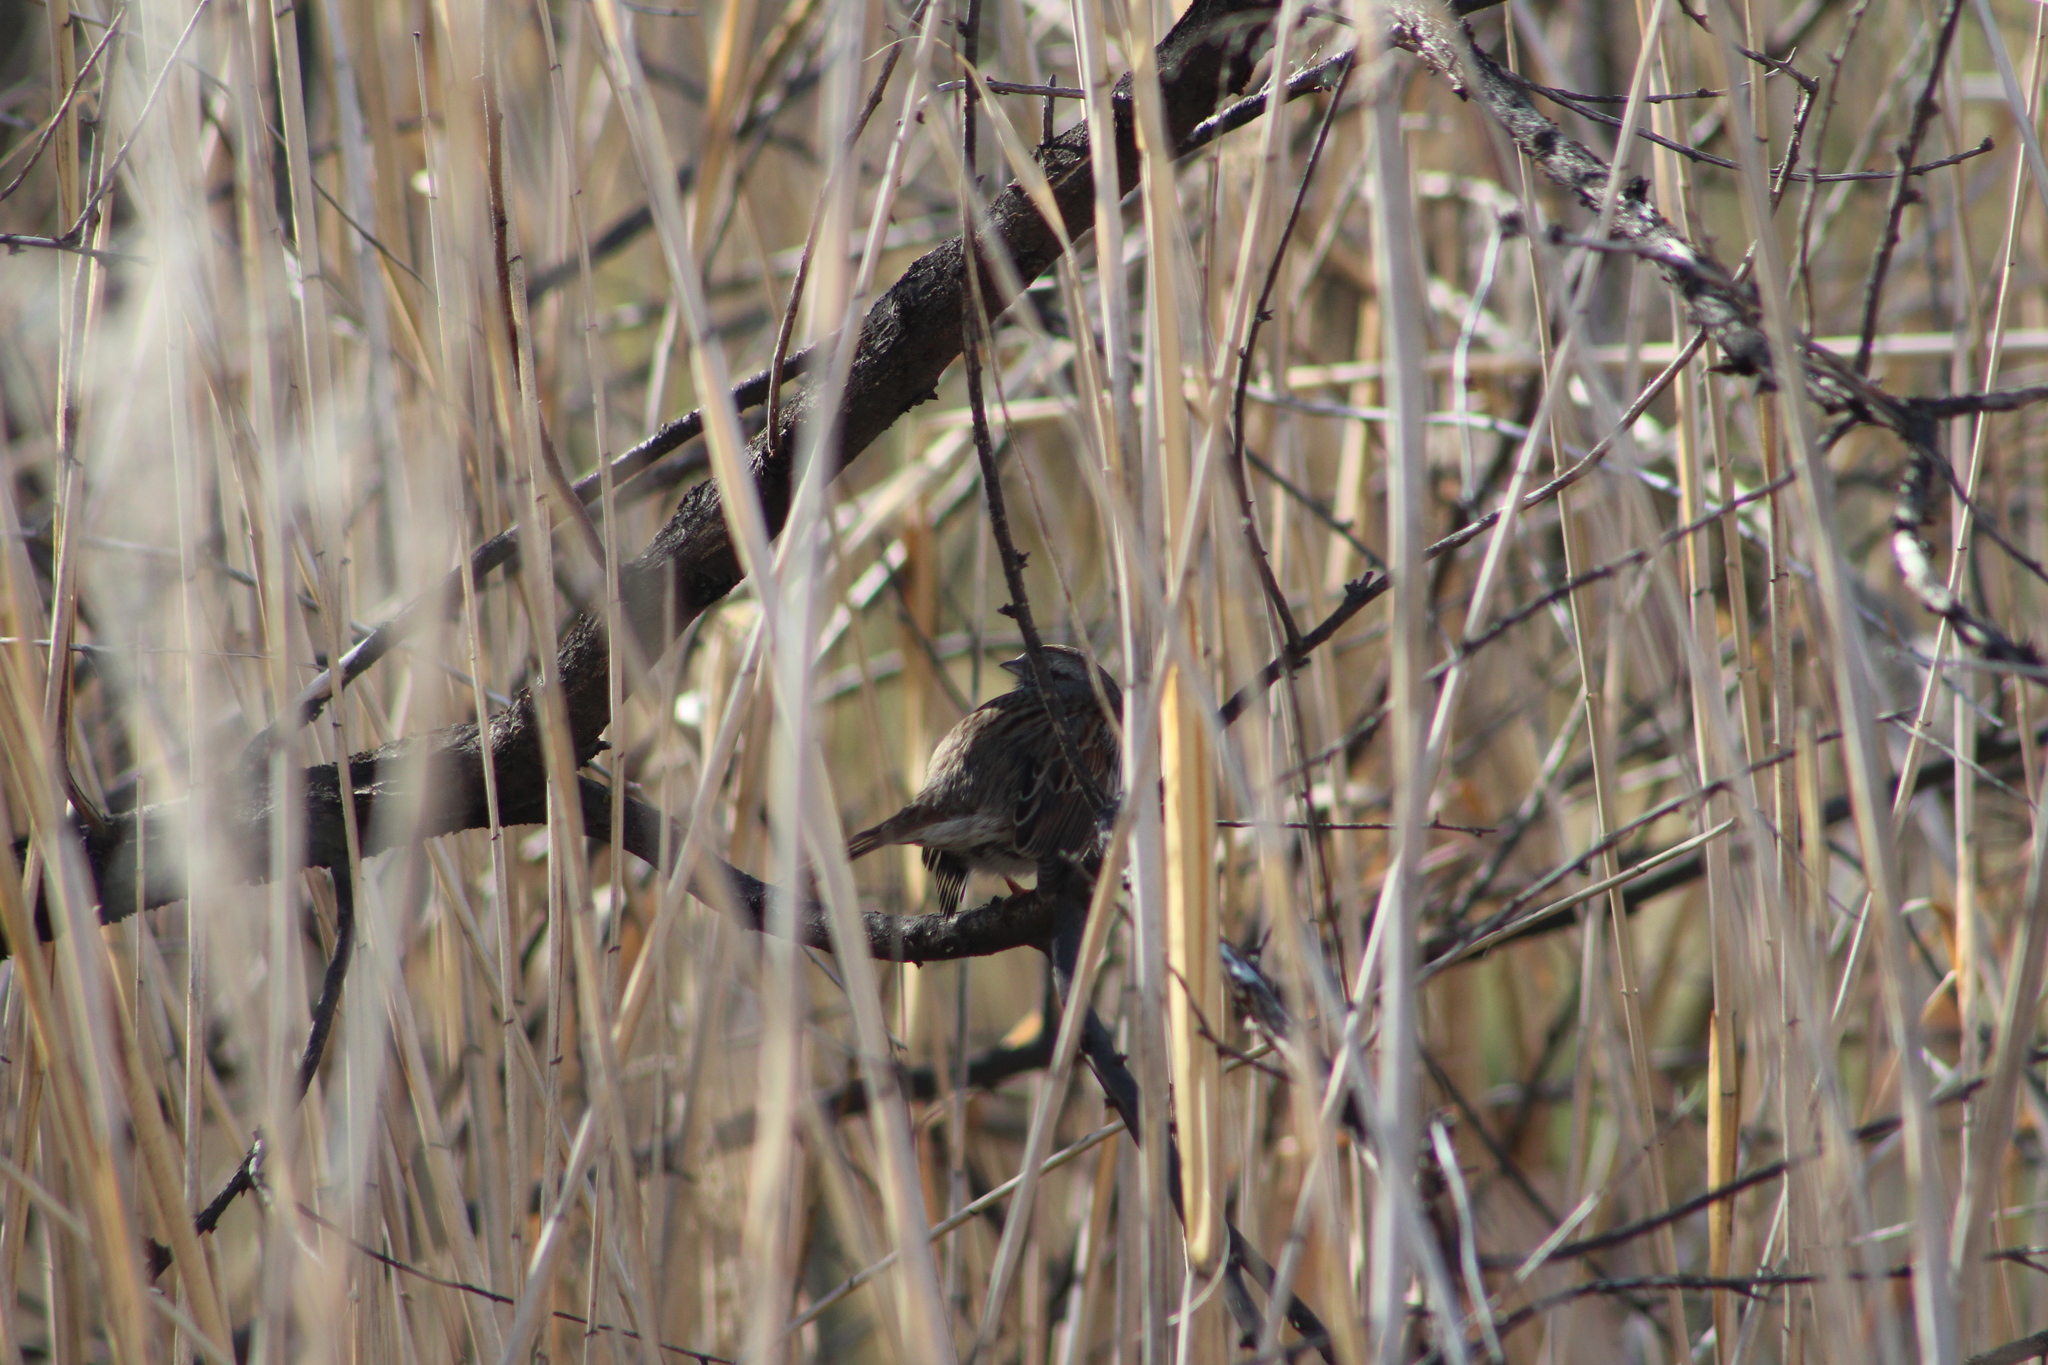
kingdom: Animalia
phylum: Chordata
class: Aves
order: Passeriformes
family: Passerellidae
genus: Melospiza
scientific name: Melospiza melodia
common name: Song sparrow
